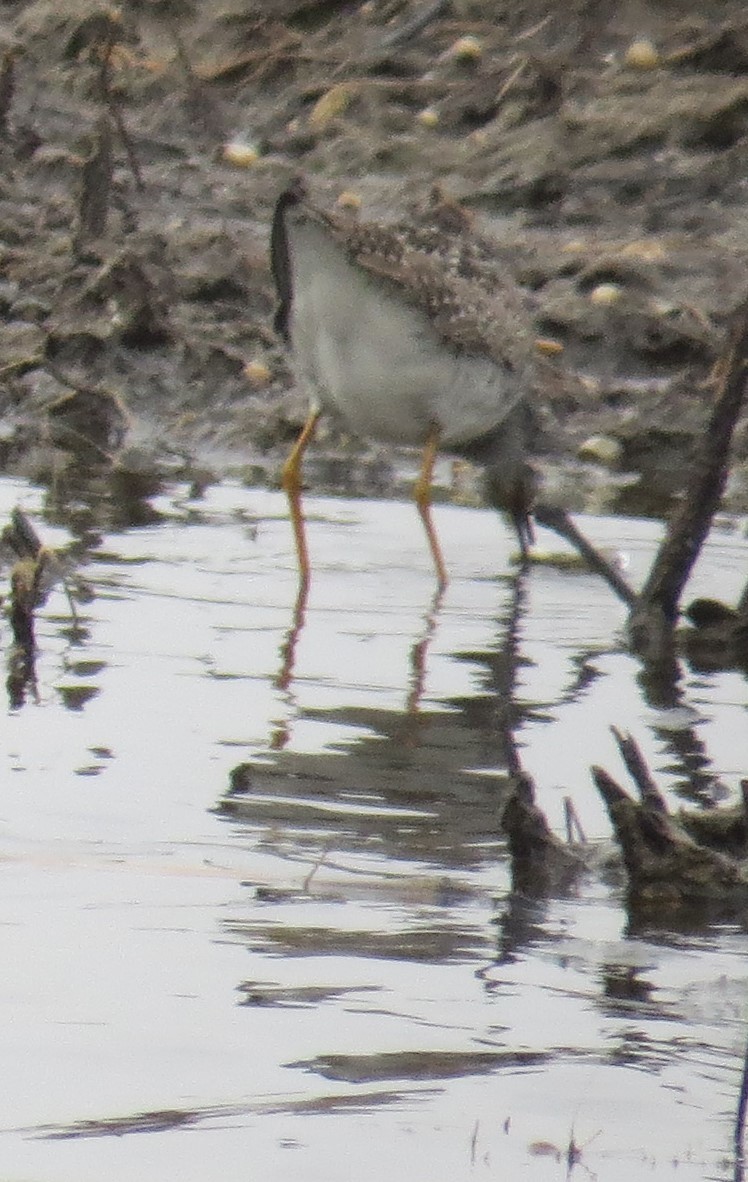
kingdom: Animalia
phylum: Chordata
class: Aves
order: Charadriiformes
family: Scolopacidae
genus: Tringa
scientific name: Tringa flavipes
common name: Lesser yellowlegs
